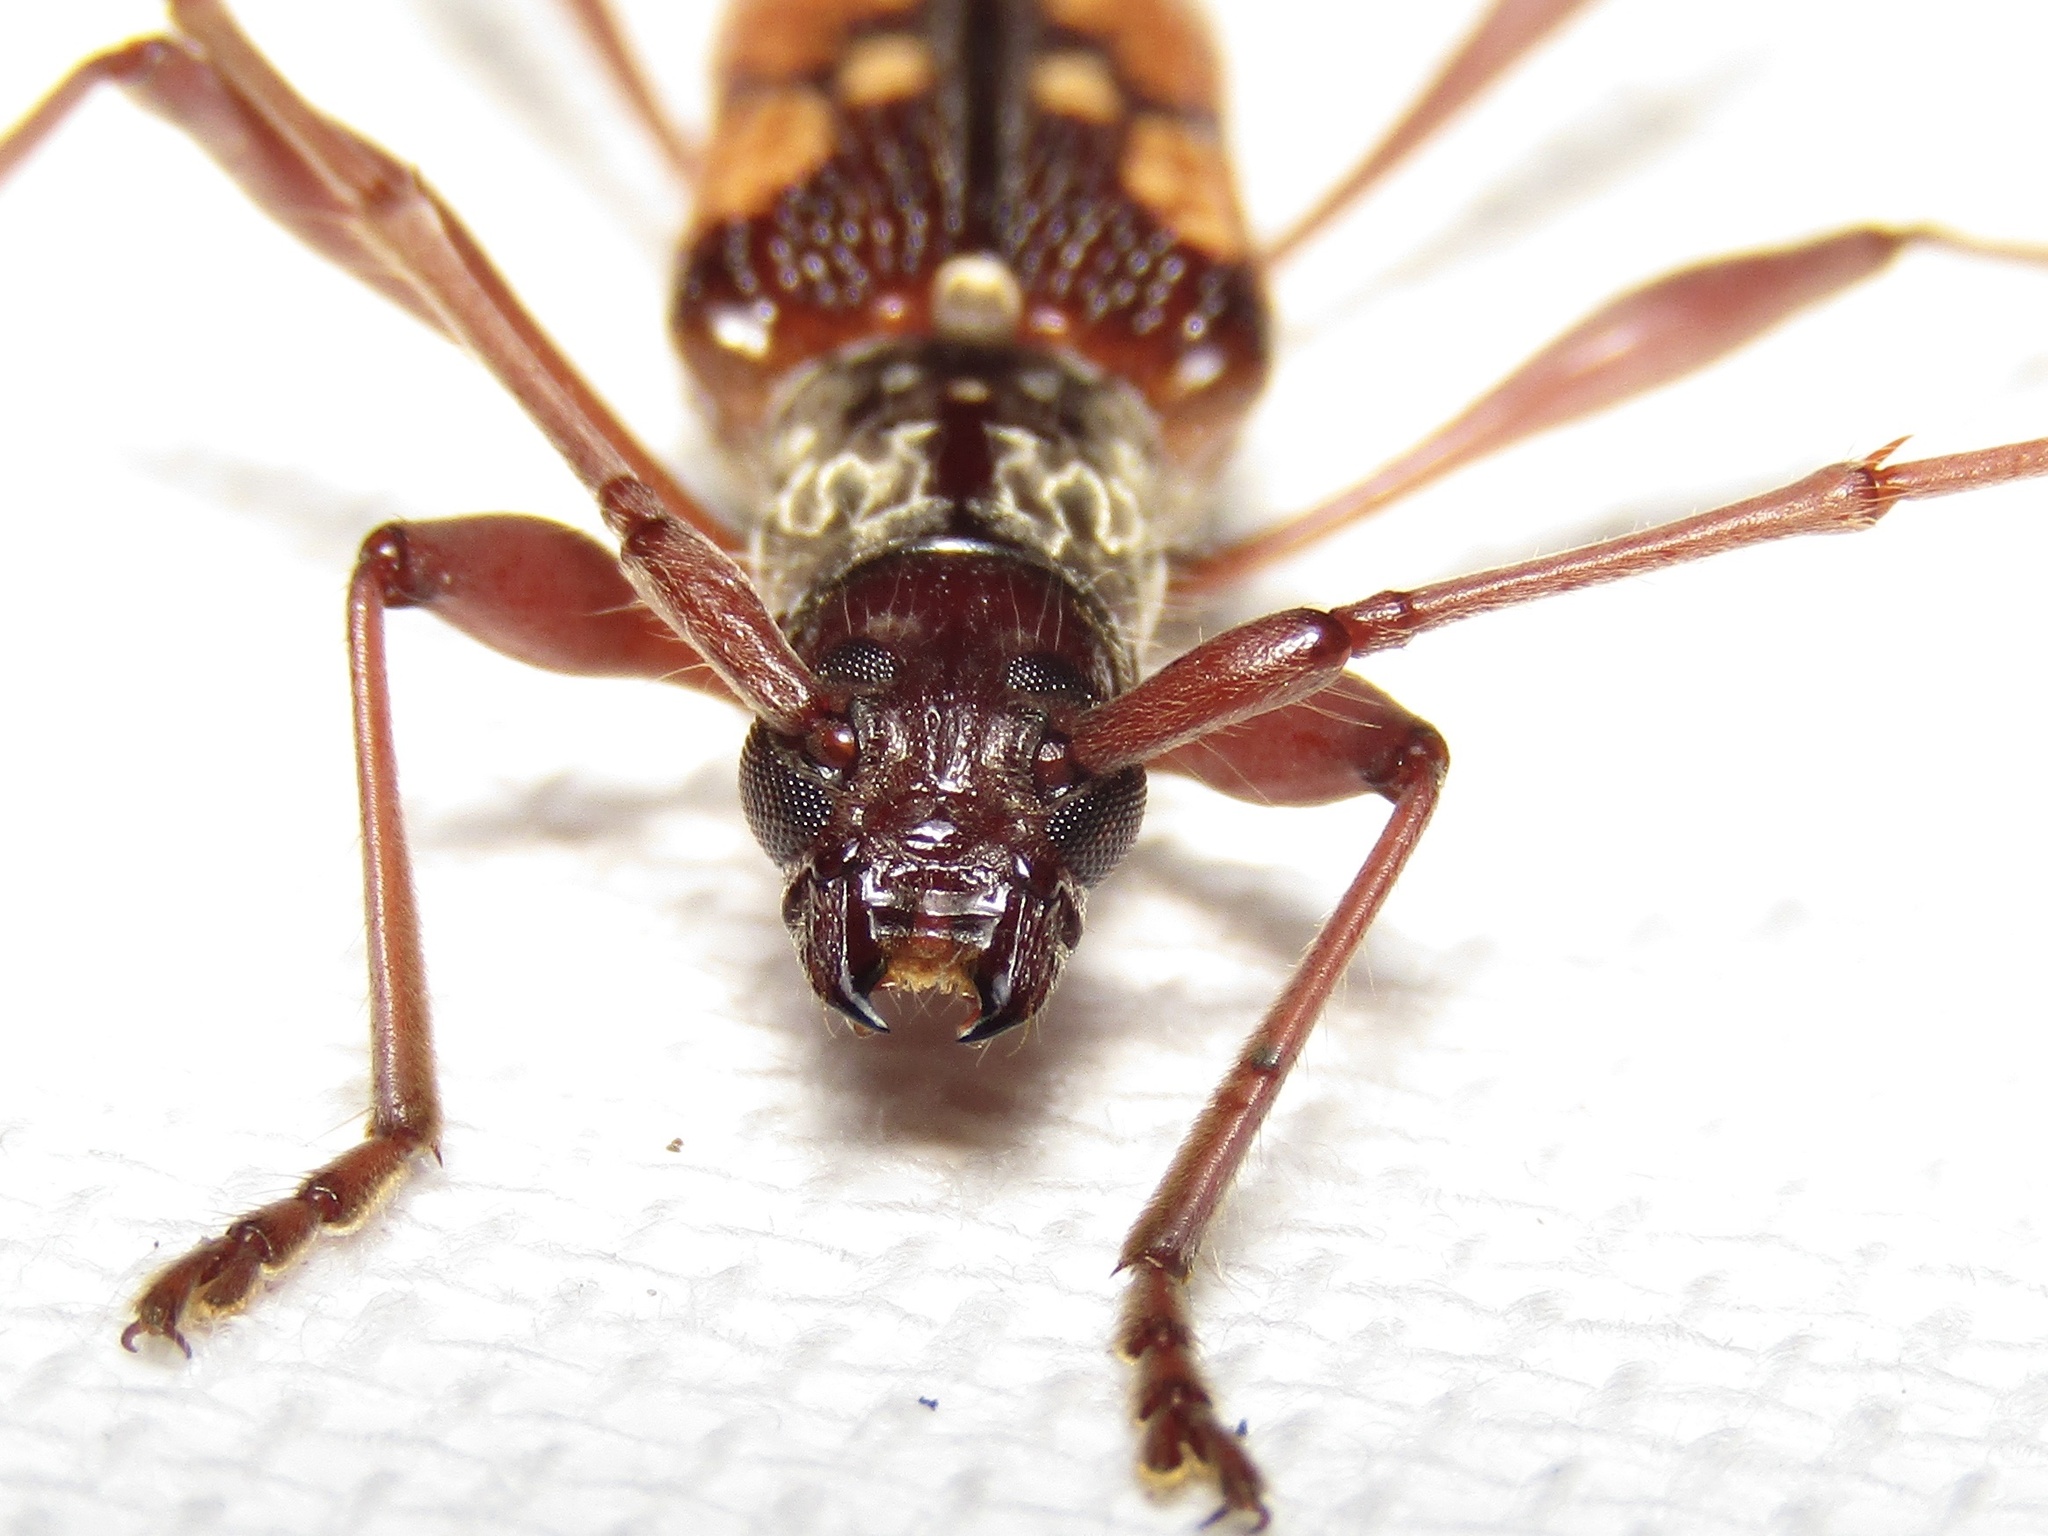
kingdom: Animalia
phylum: Arthropoda
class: Insecta
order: Coleoptera
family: Cerambycidae
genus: Coptocercus
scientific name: Coptocercus multitrichus
